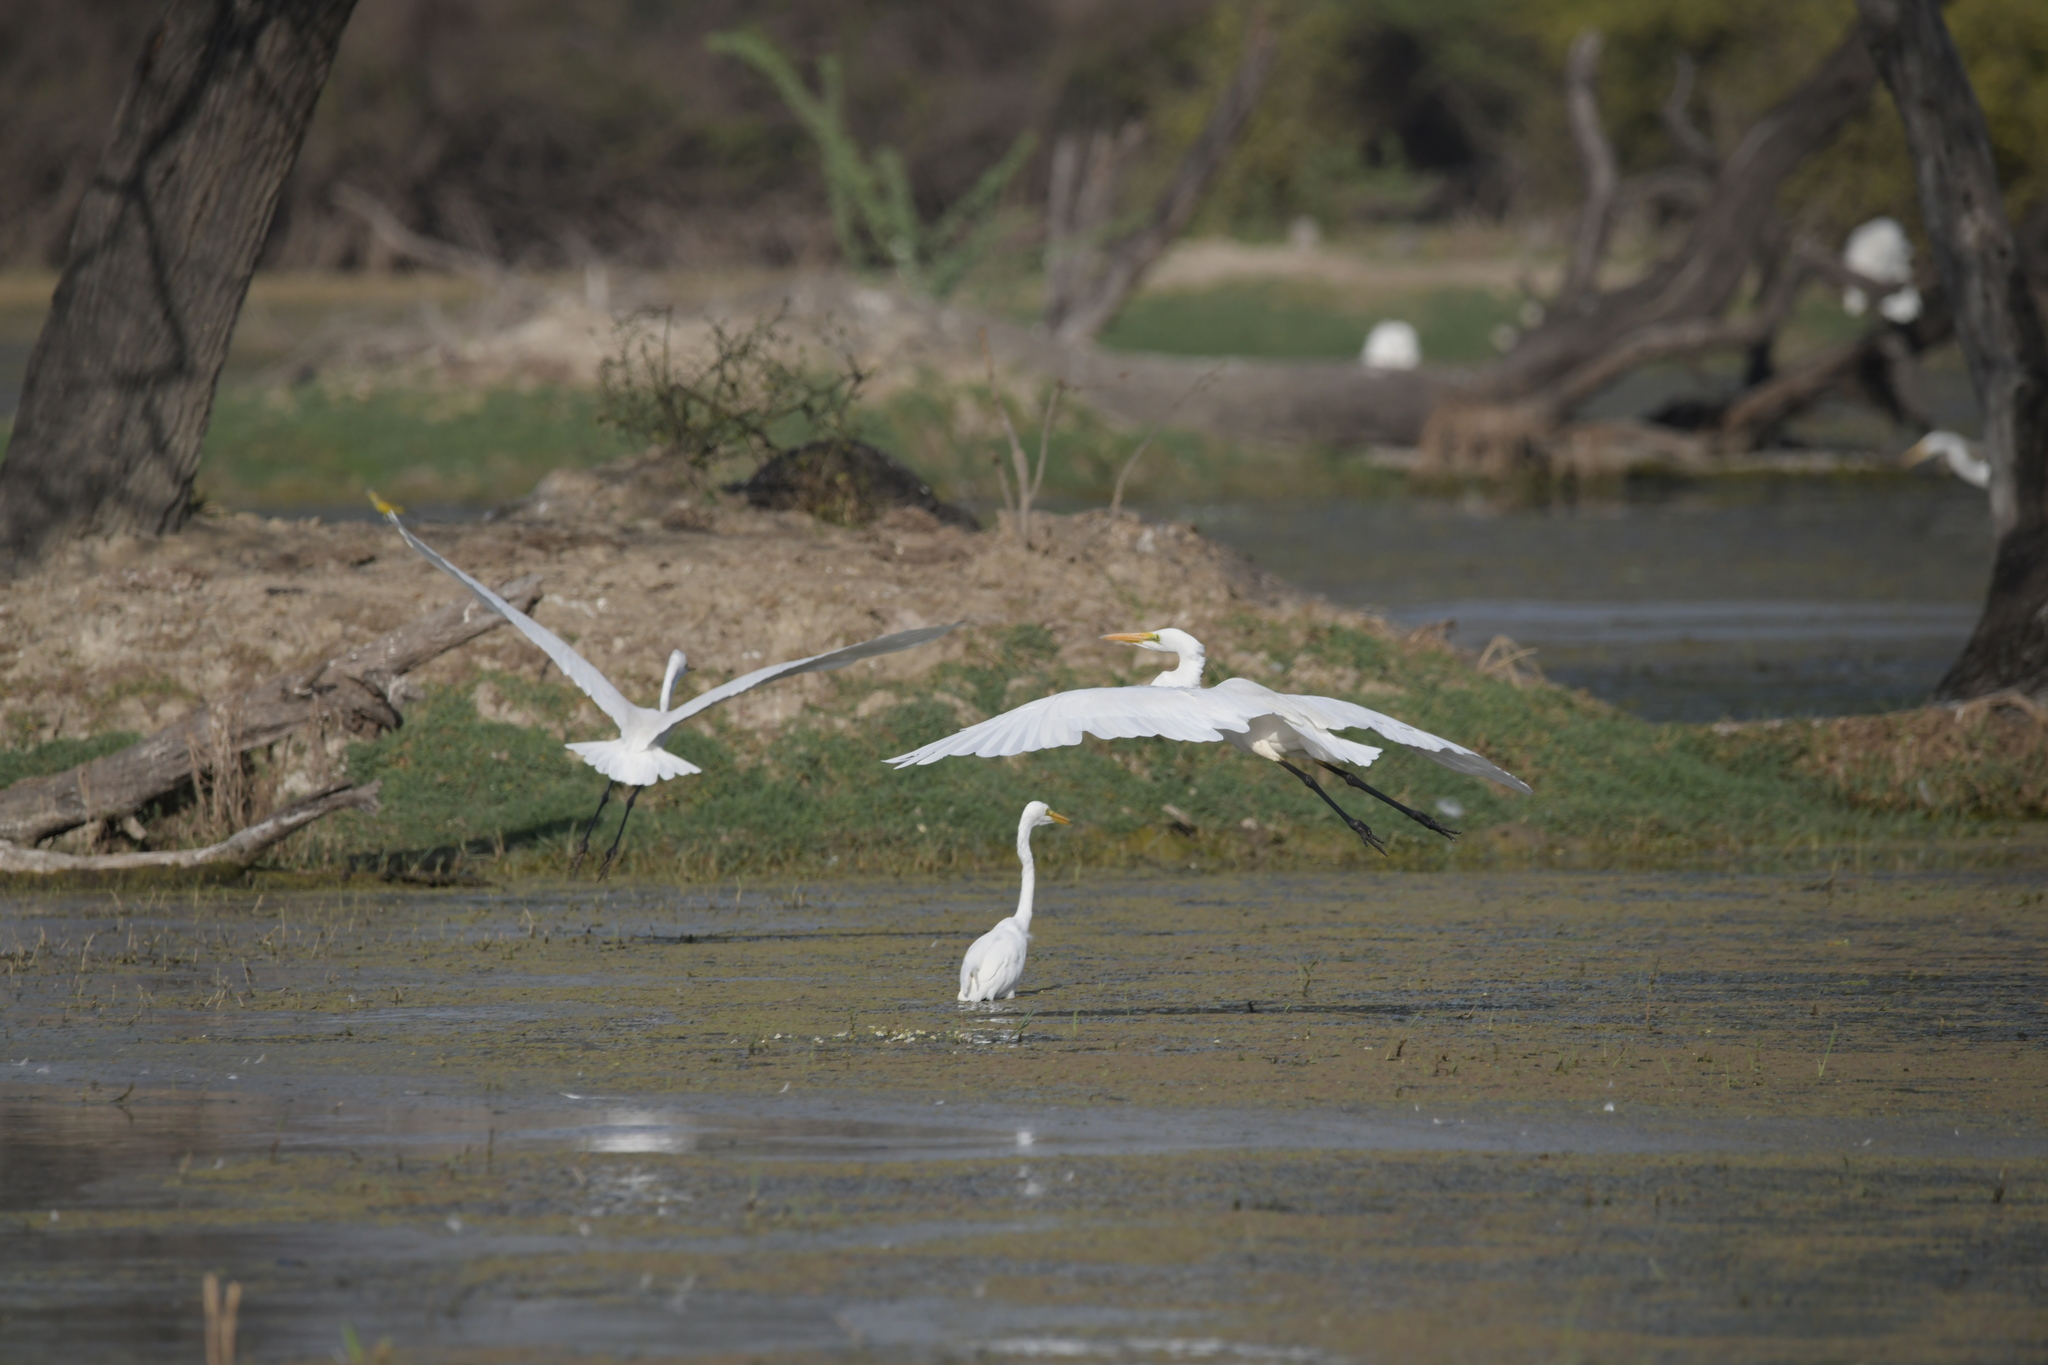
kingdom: Animalia
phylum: Chordata
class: Aves
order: Pelecaniformes
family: Ardeidae
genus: Ardea
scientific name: Ardea alba
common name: Great egret
